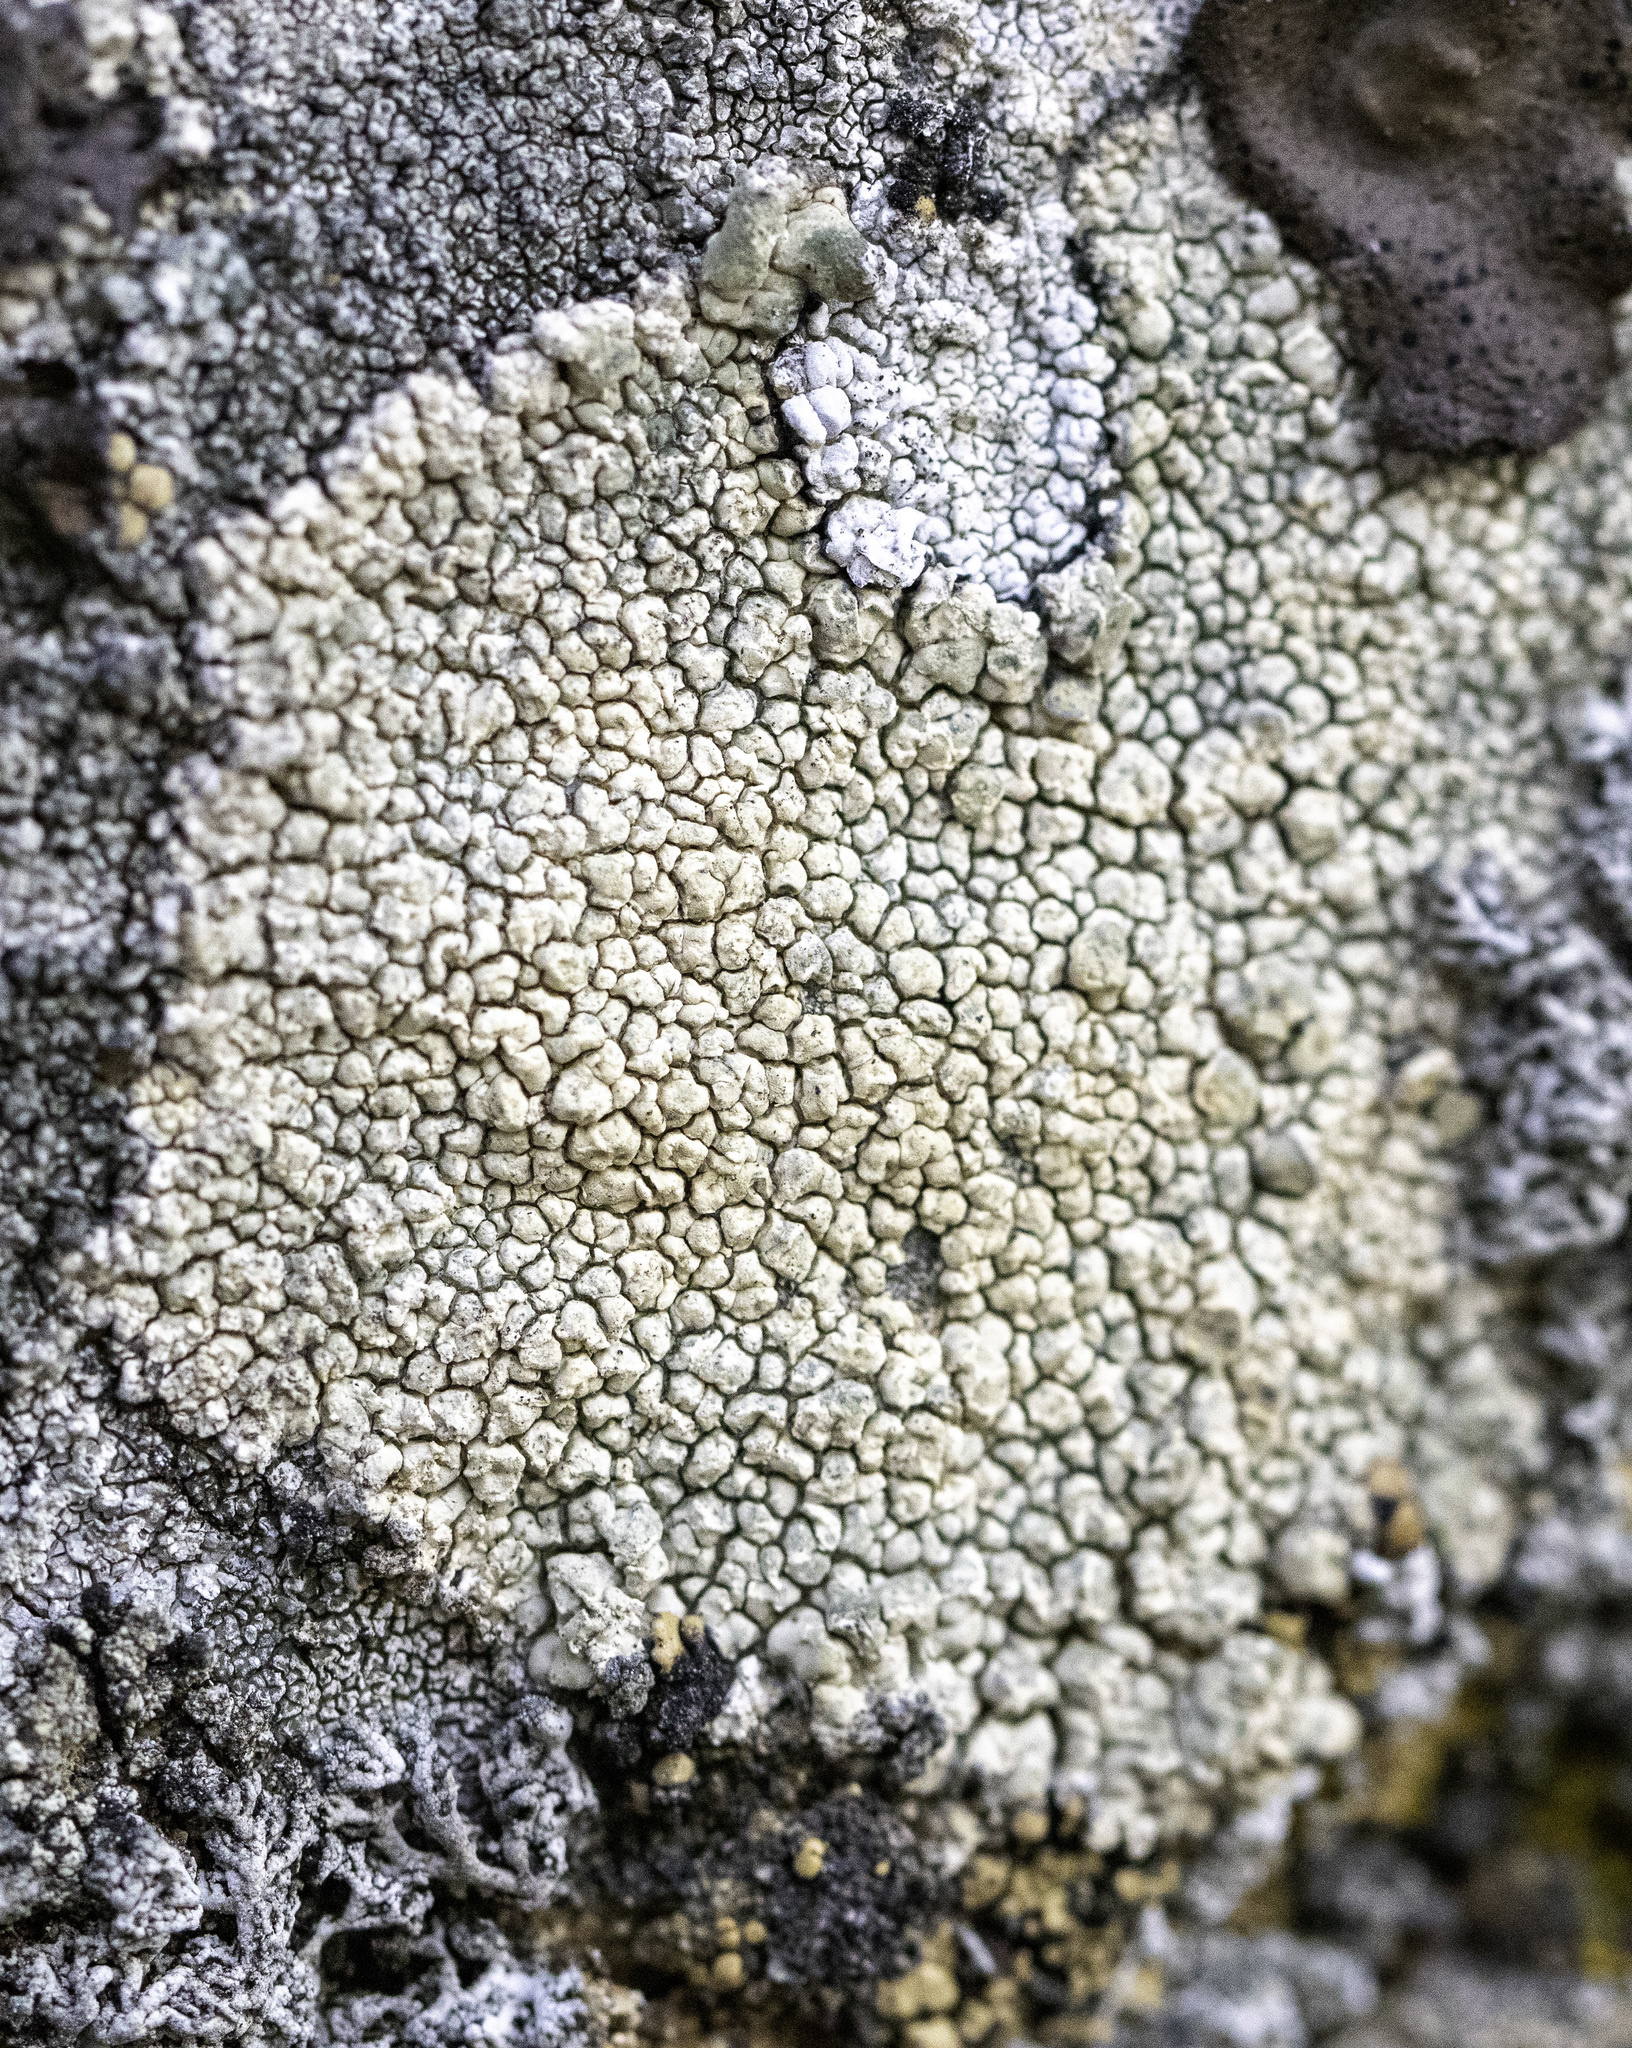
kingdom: Fungi
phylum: Ascomycota
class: Lecanoromycetes
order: Pertusariales
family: Megasporaceae
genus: Aspicilia
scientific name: Aspicilia aurantiaca
